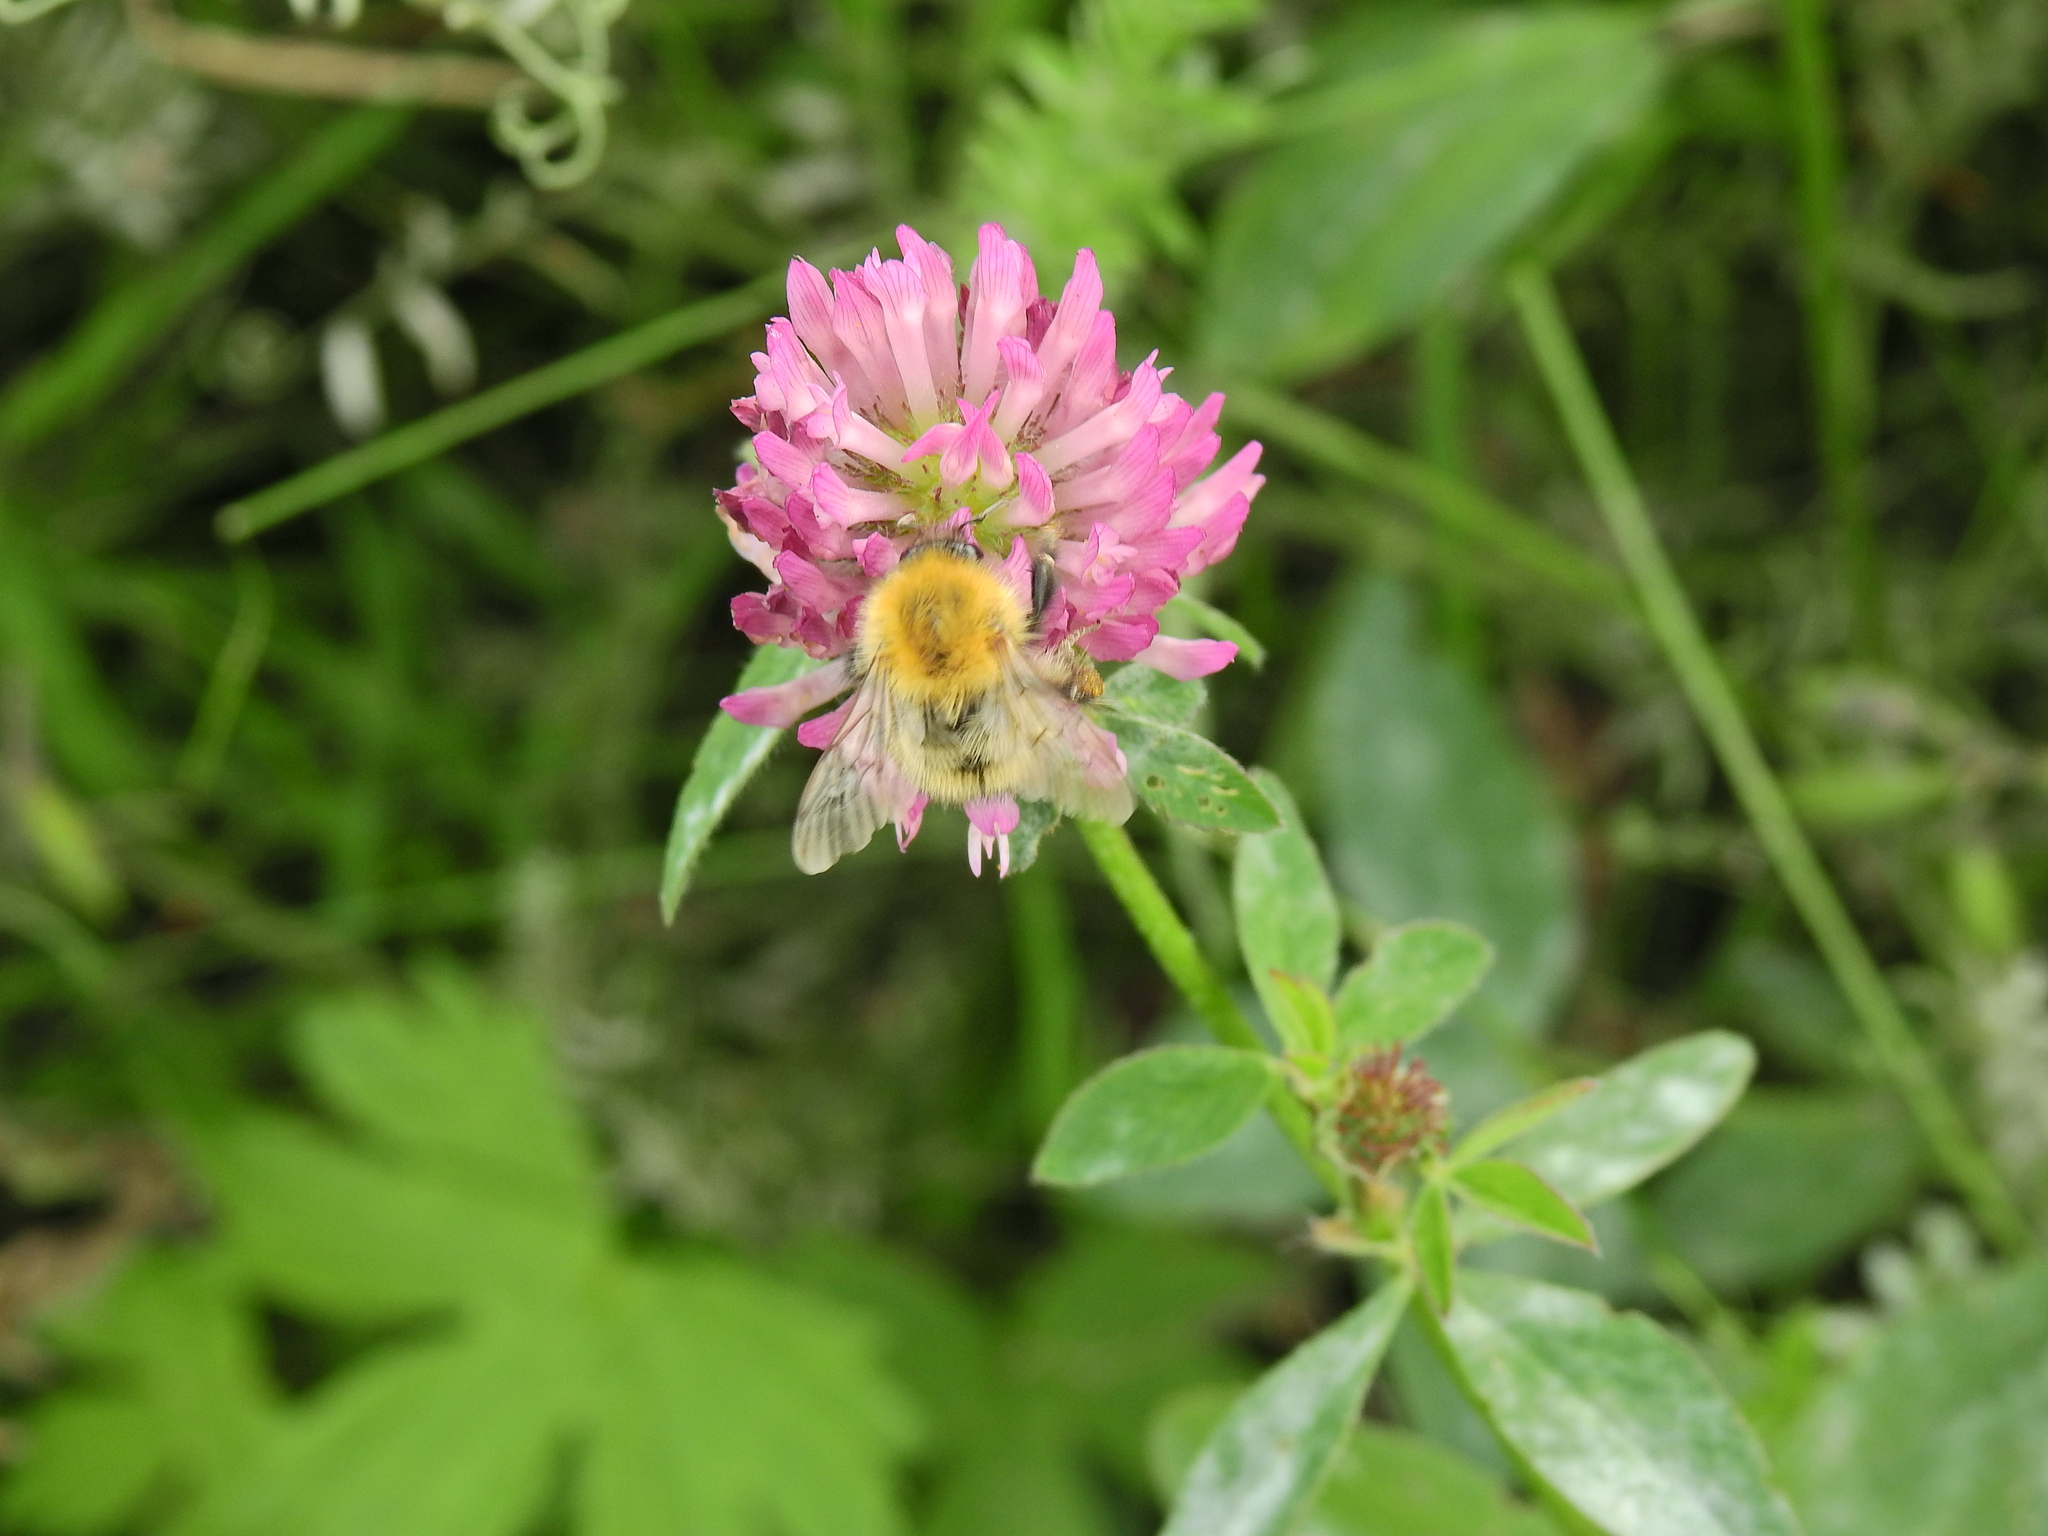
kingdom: Animalia
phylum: Arthropoda
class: Insecta
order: Hymenoptera
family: Apidae
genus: Bombus
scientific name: Bombus pascuorum
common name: Common carder bee
